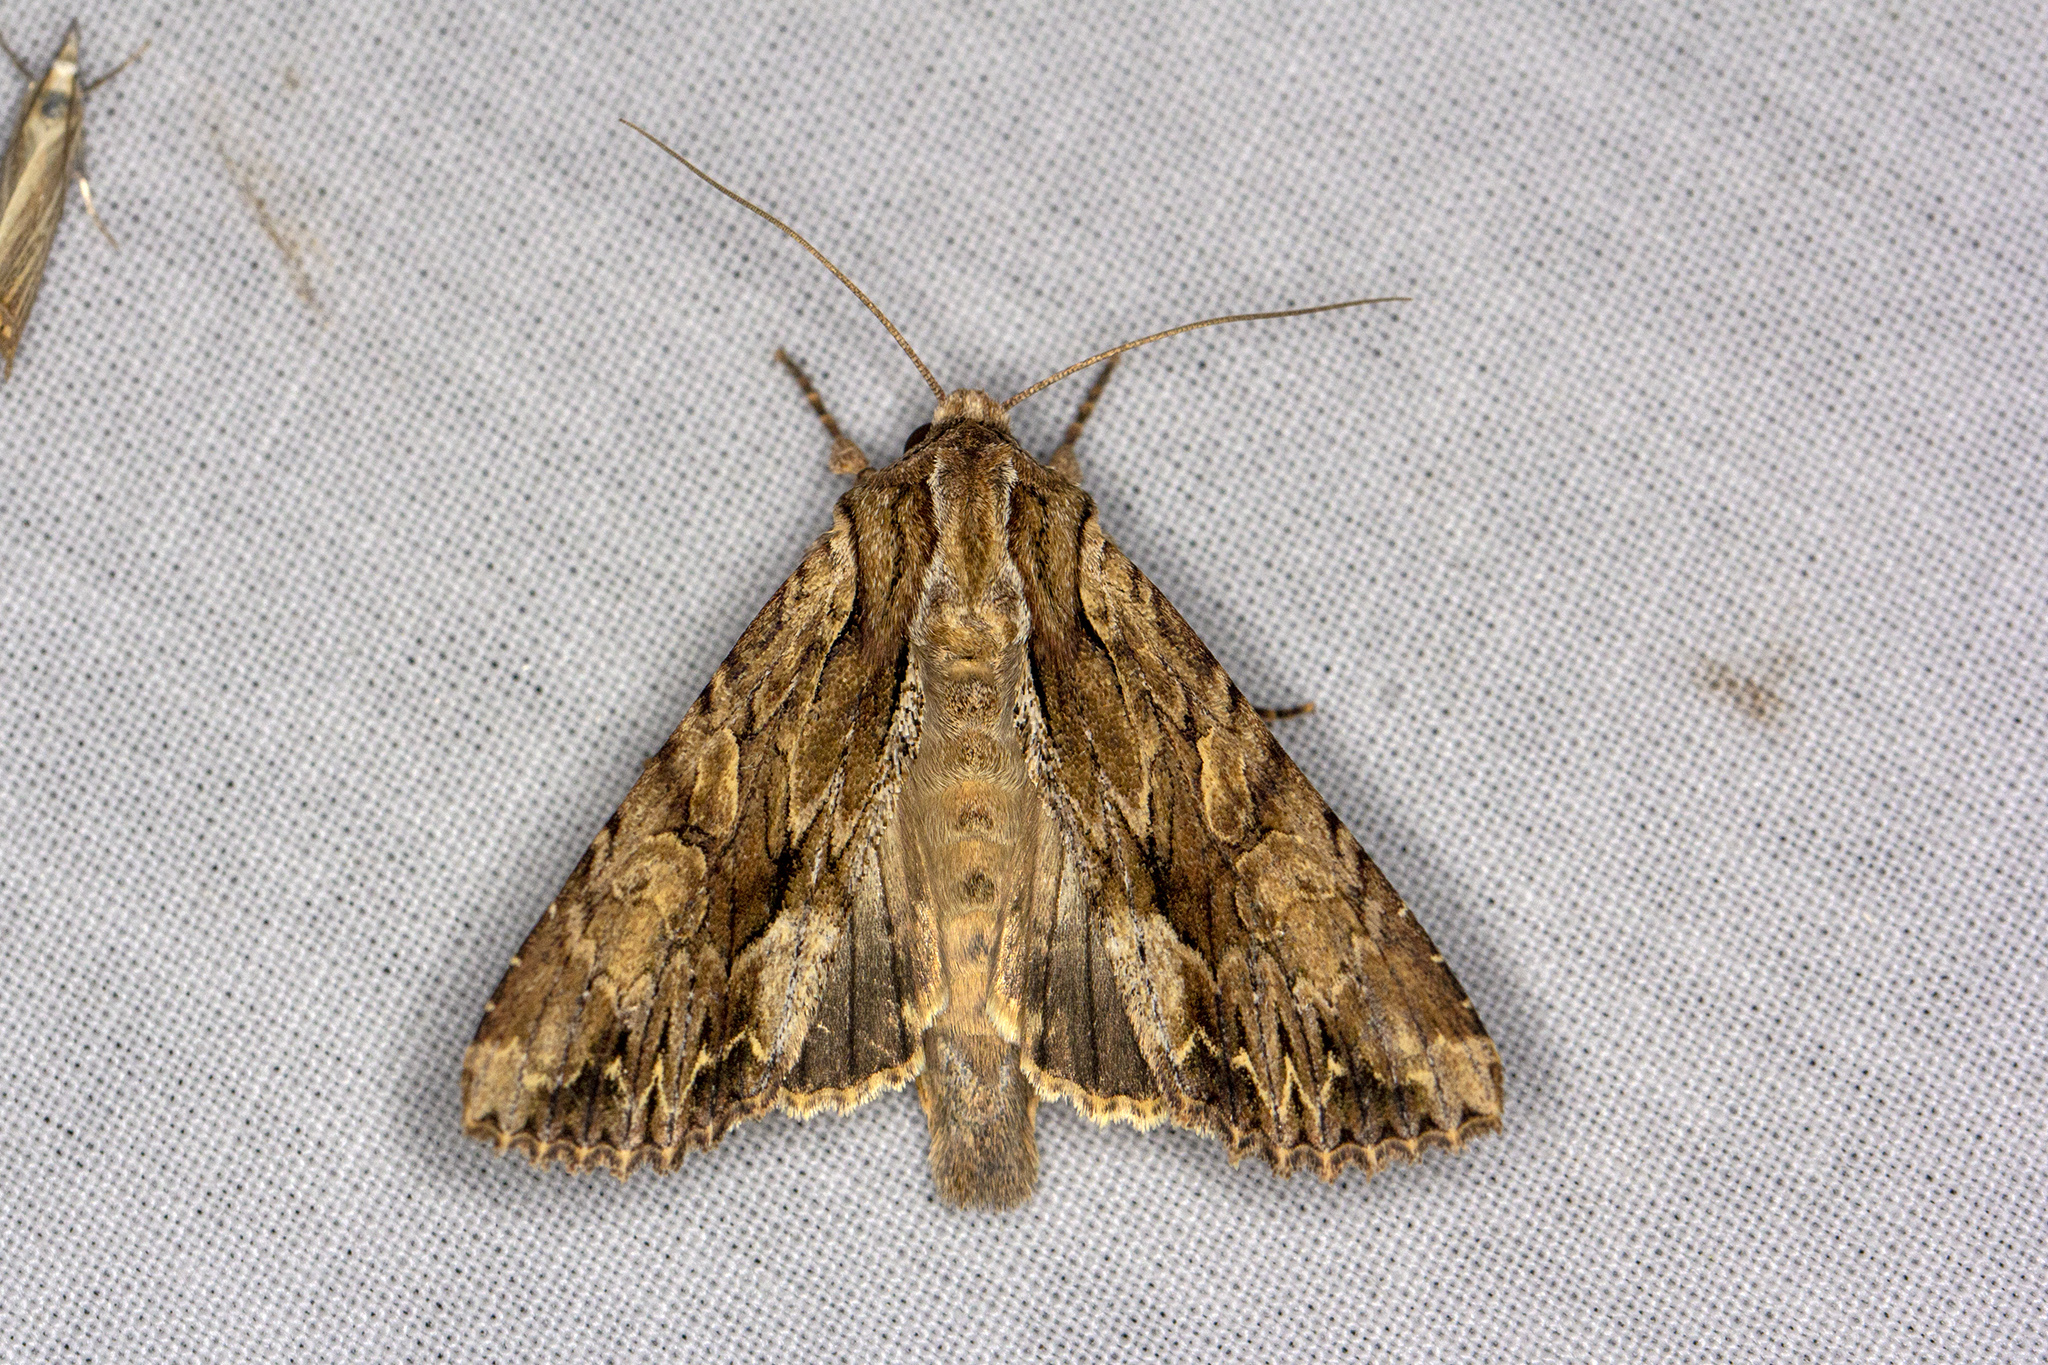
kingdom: Animalia
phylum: Arthropoda
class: Insecta
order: Lepidoptera
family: Noctuidae
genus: Apamea
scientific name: Apamea monoglypha
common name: Dark arches
